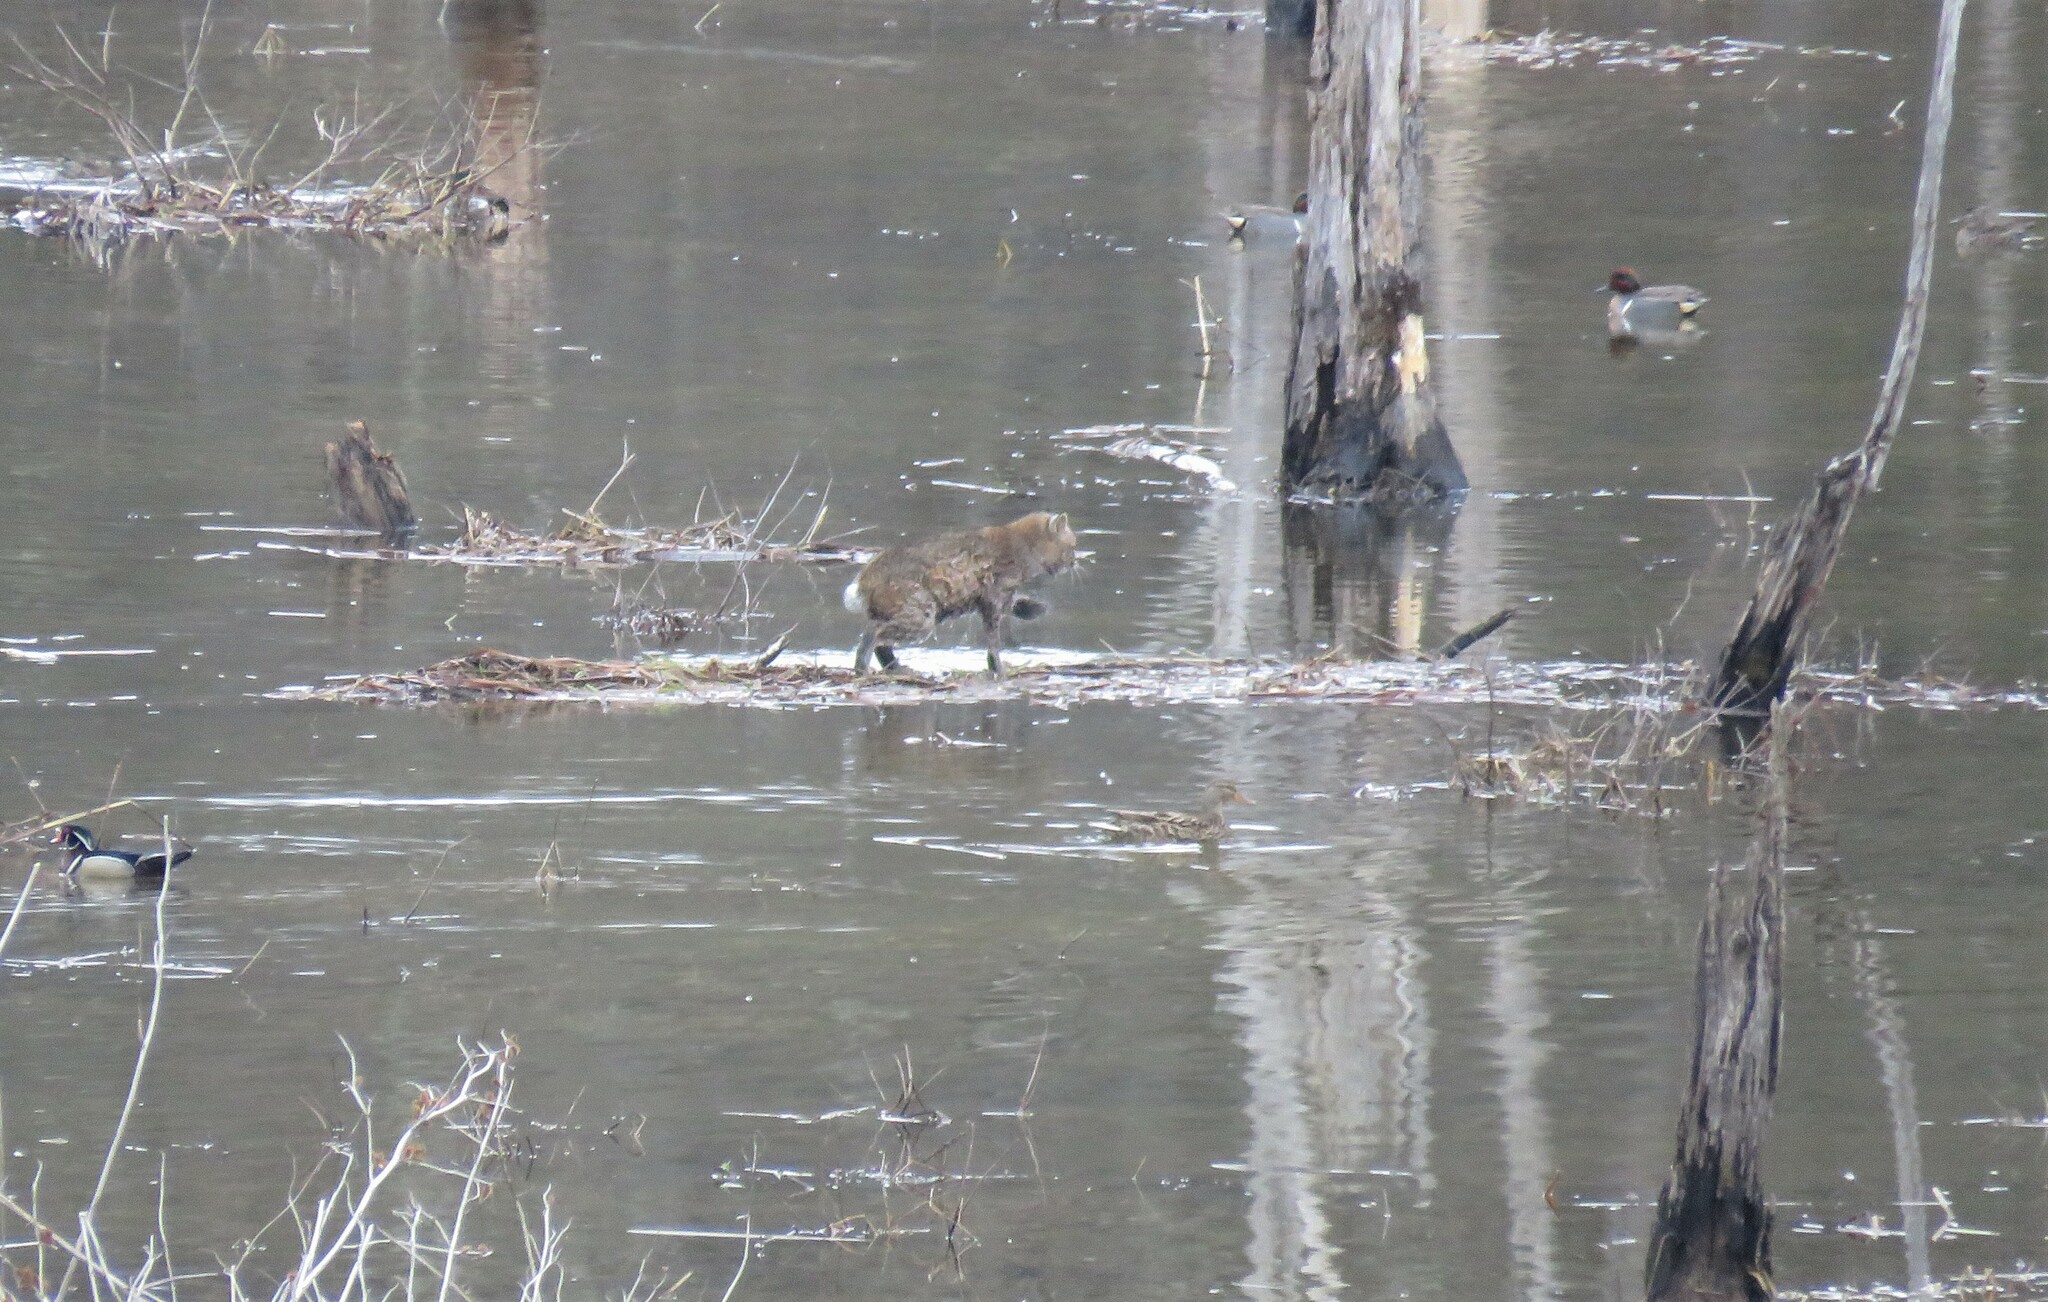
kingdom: Animalia
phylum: Chordata
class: Mammalia
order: Carnivora
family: Felidae
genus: Lynx
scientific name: Lynx rufus
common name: Bobcat
